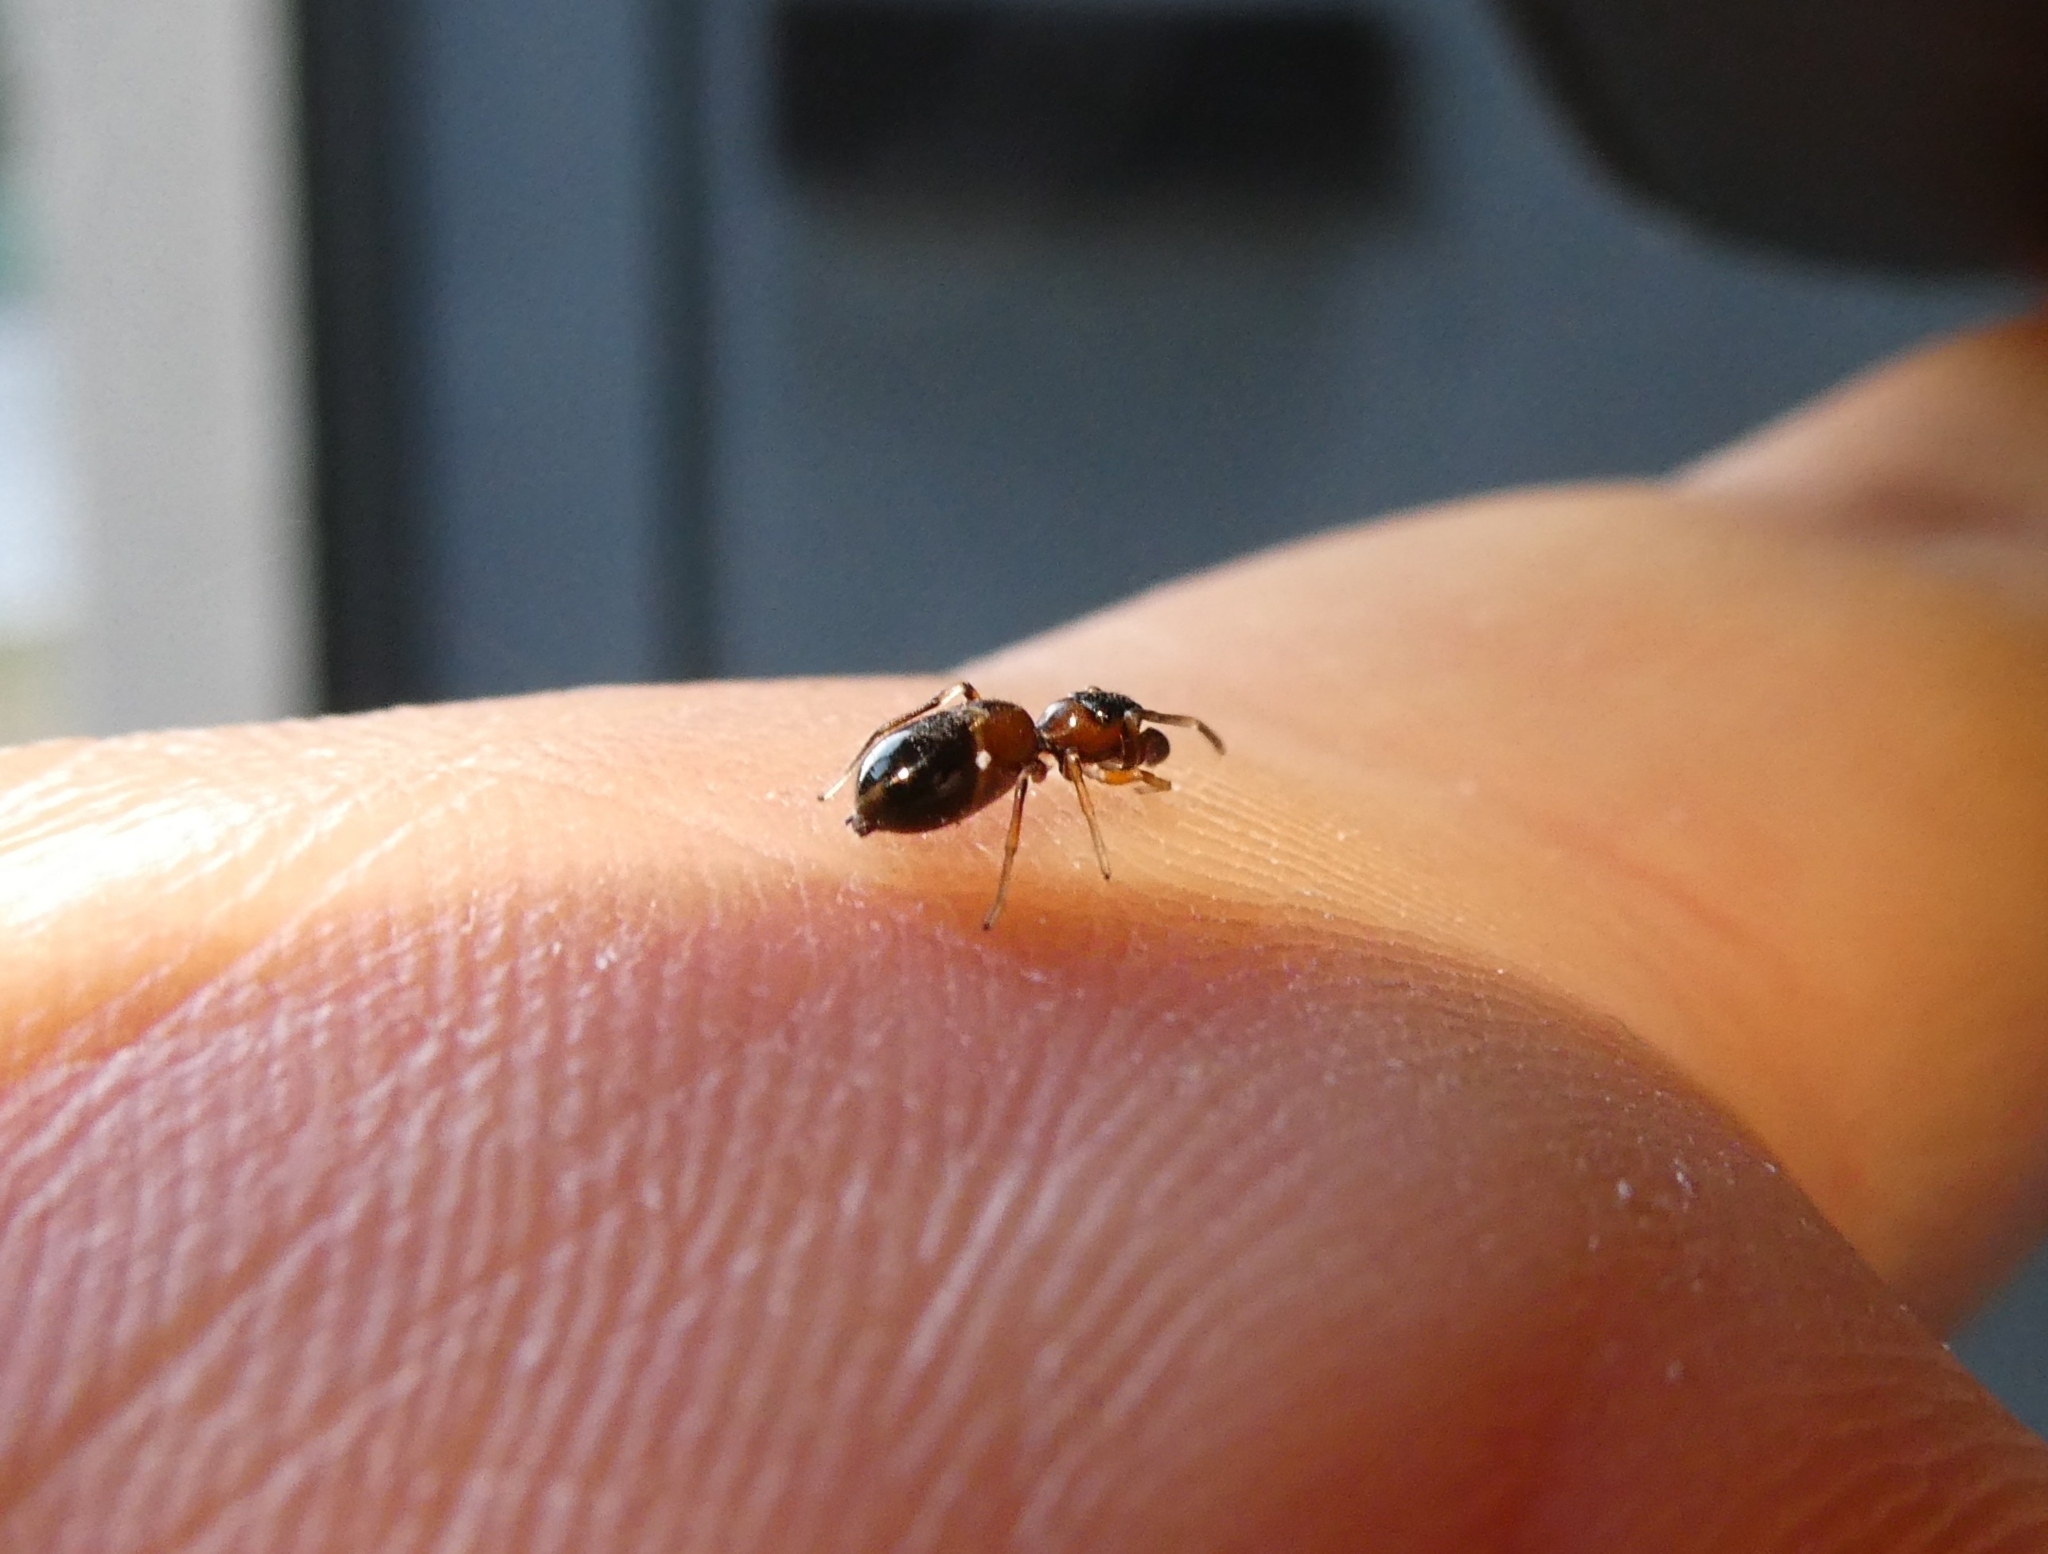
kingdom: Animalia
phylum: Arthropoda
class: Arachnida
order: Araneae
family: Salticidae
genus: Myrmarachne
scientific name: Myrmarachne formicaria
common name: Ant mimic jumping spider
